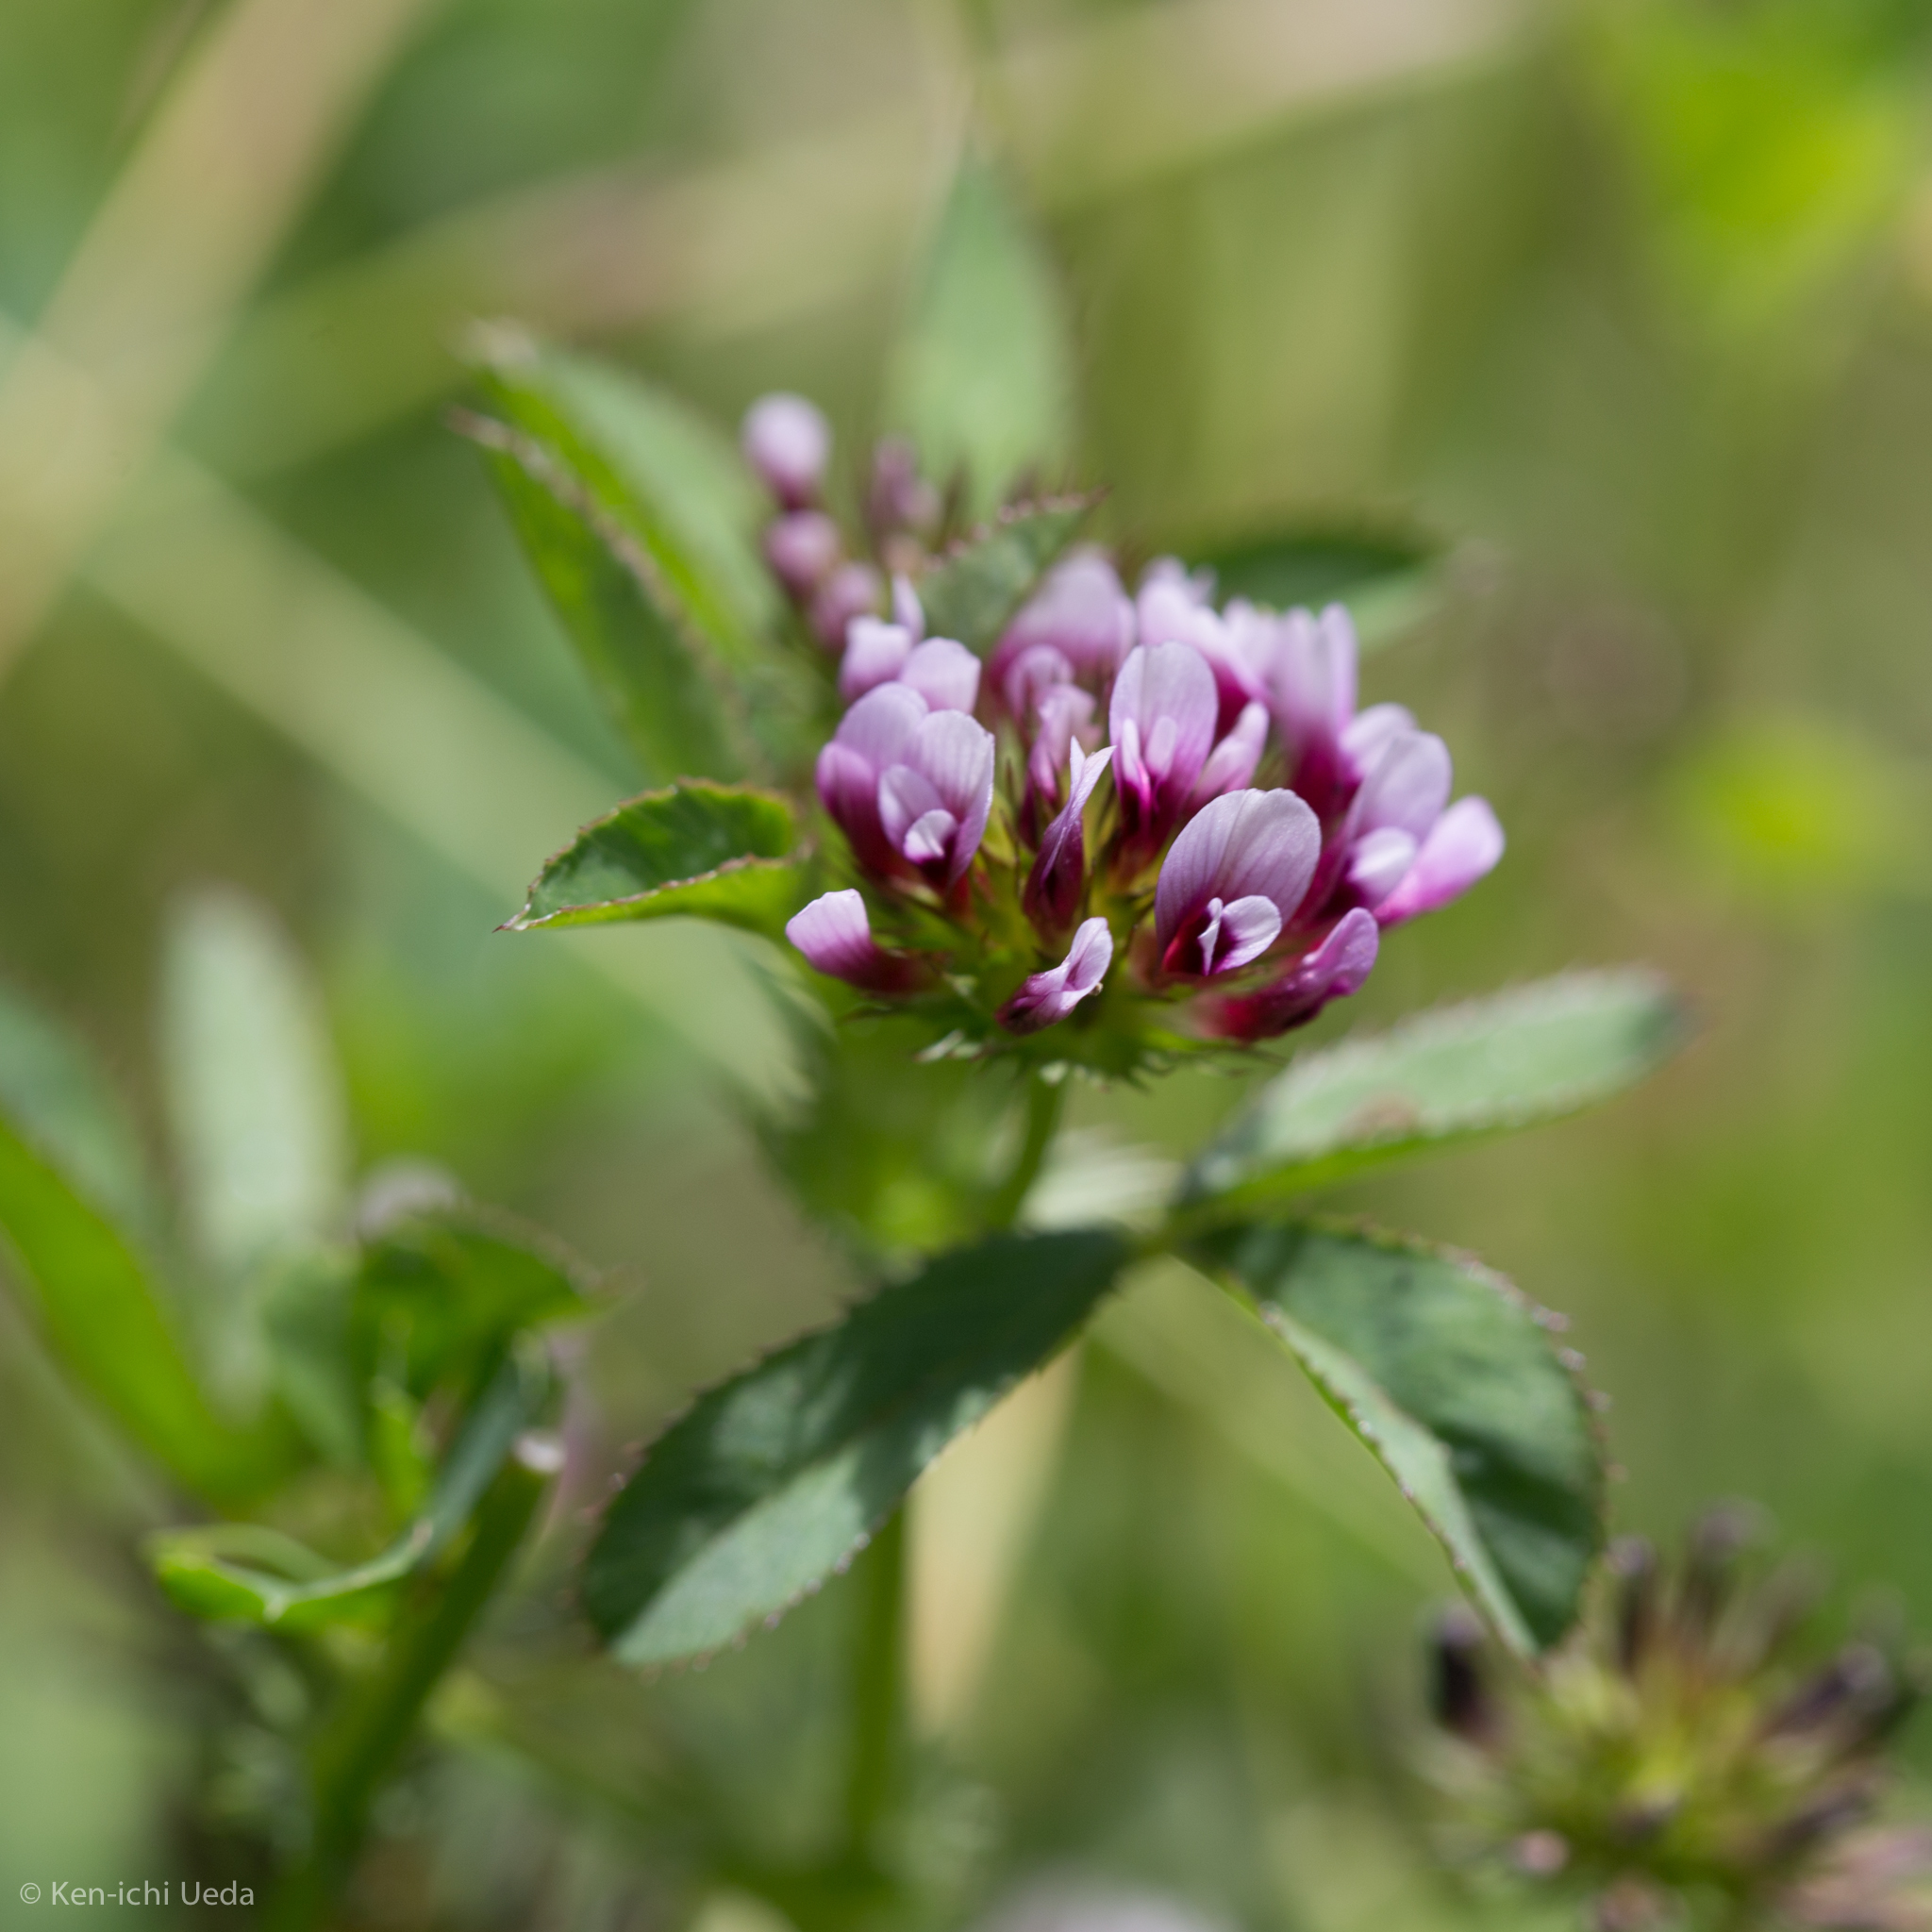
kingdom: Plantae
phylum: Tracheophyta
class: Magnoliopsida
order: Fabales
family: Fabaceae
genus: Trifolium
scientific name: Trifolium variegatum
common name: Whitetip clover
